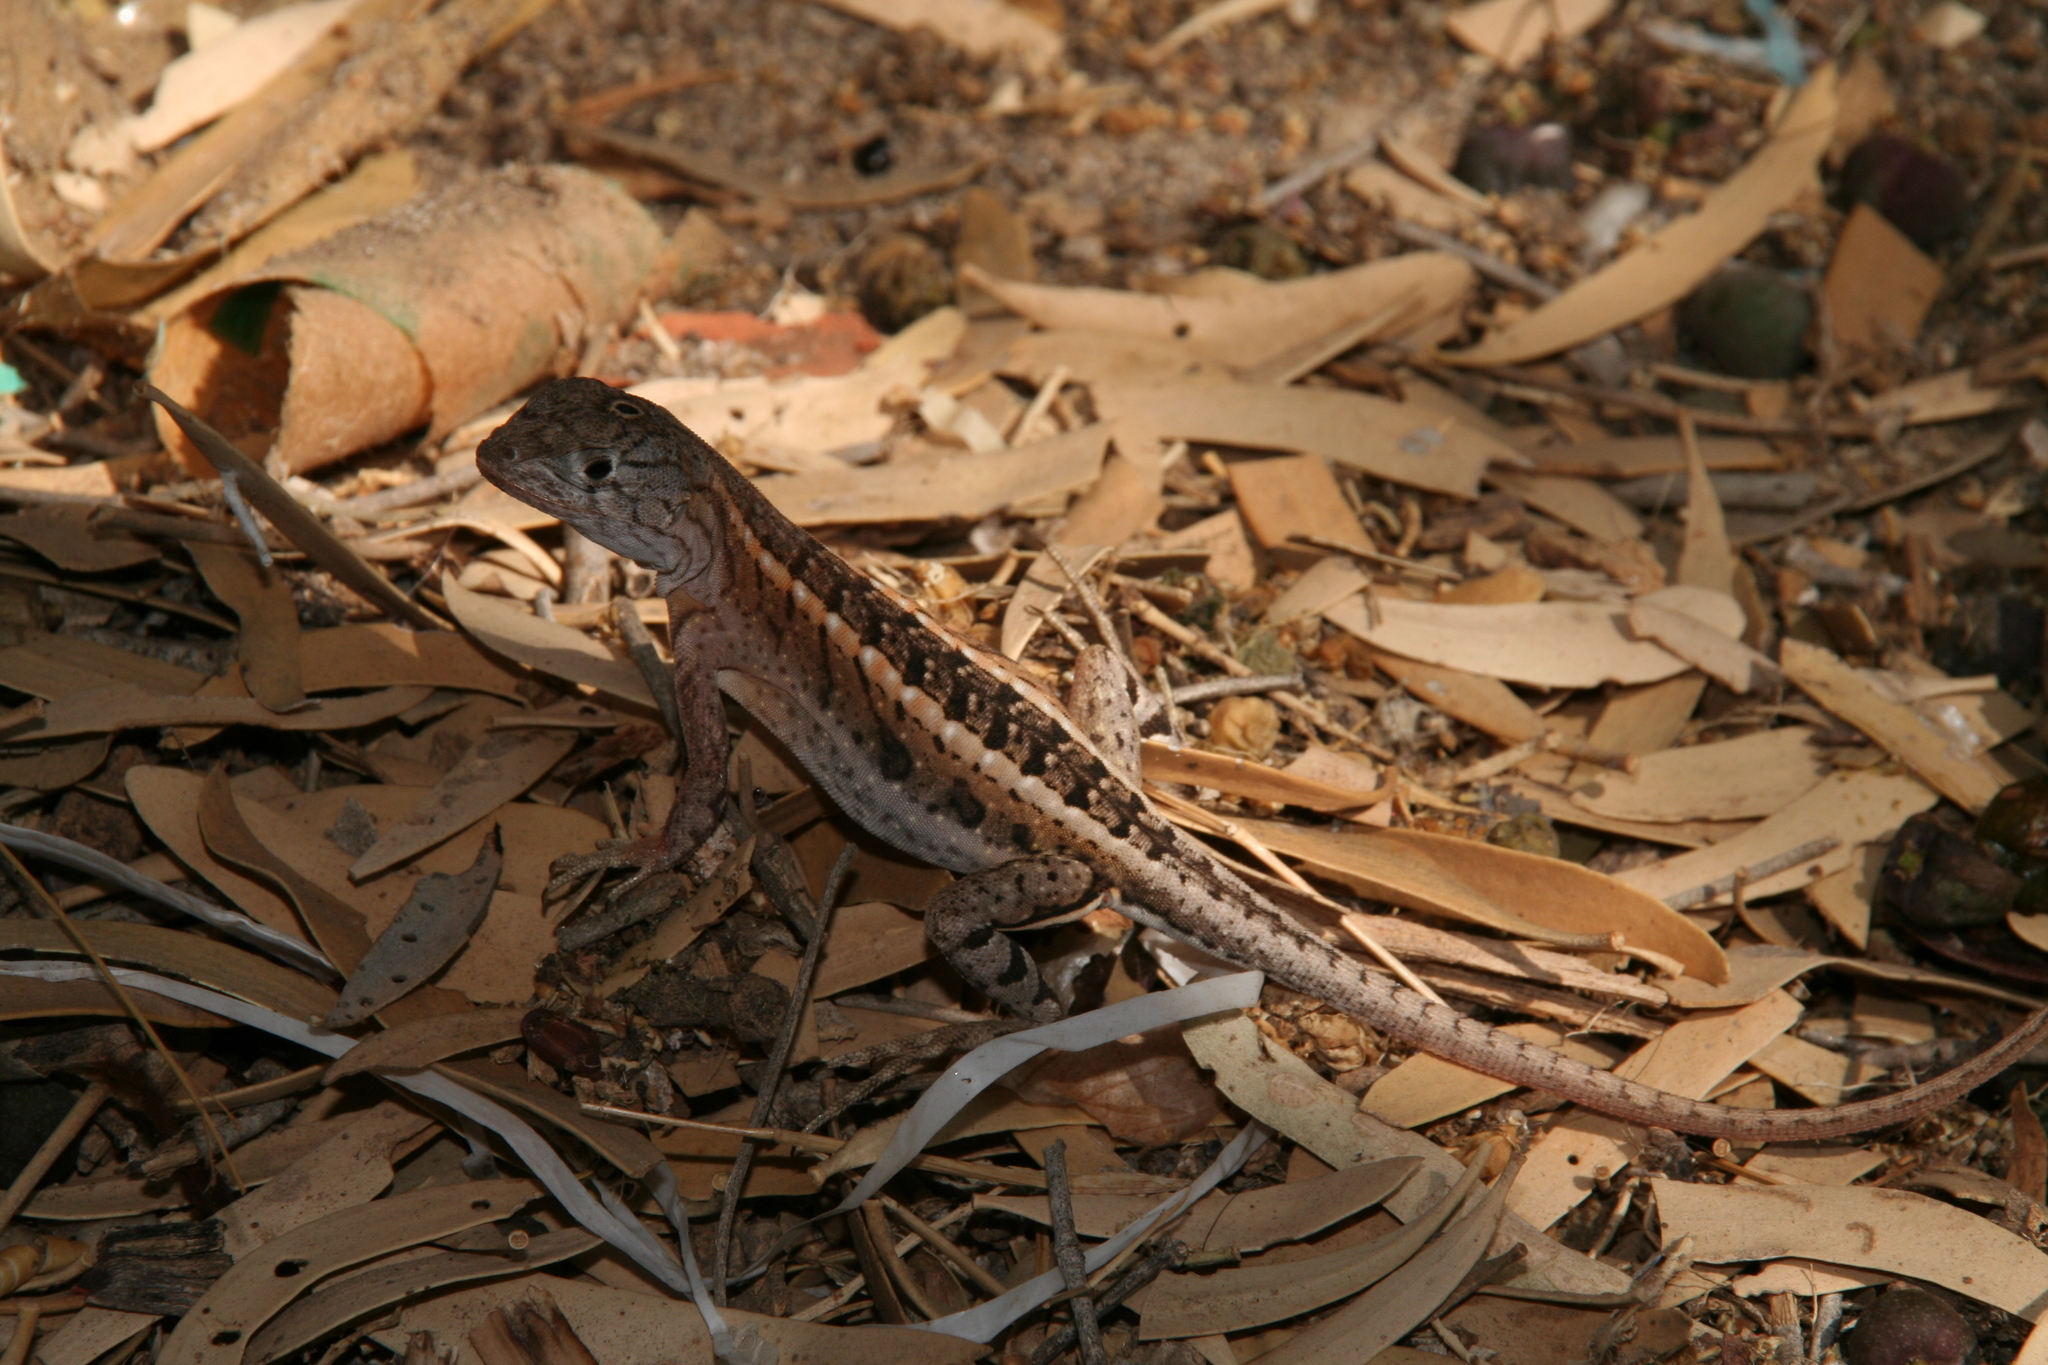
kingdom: Animalia
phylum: Chordata
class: Squamata
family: Opluridae
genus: Chalarodon
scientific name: Chalarodon madagascariensis
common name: Madagascar iguana
